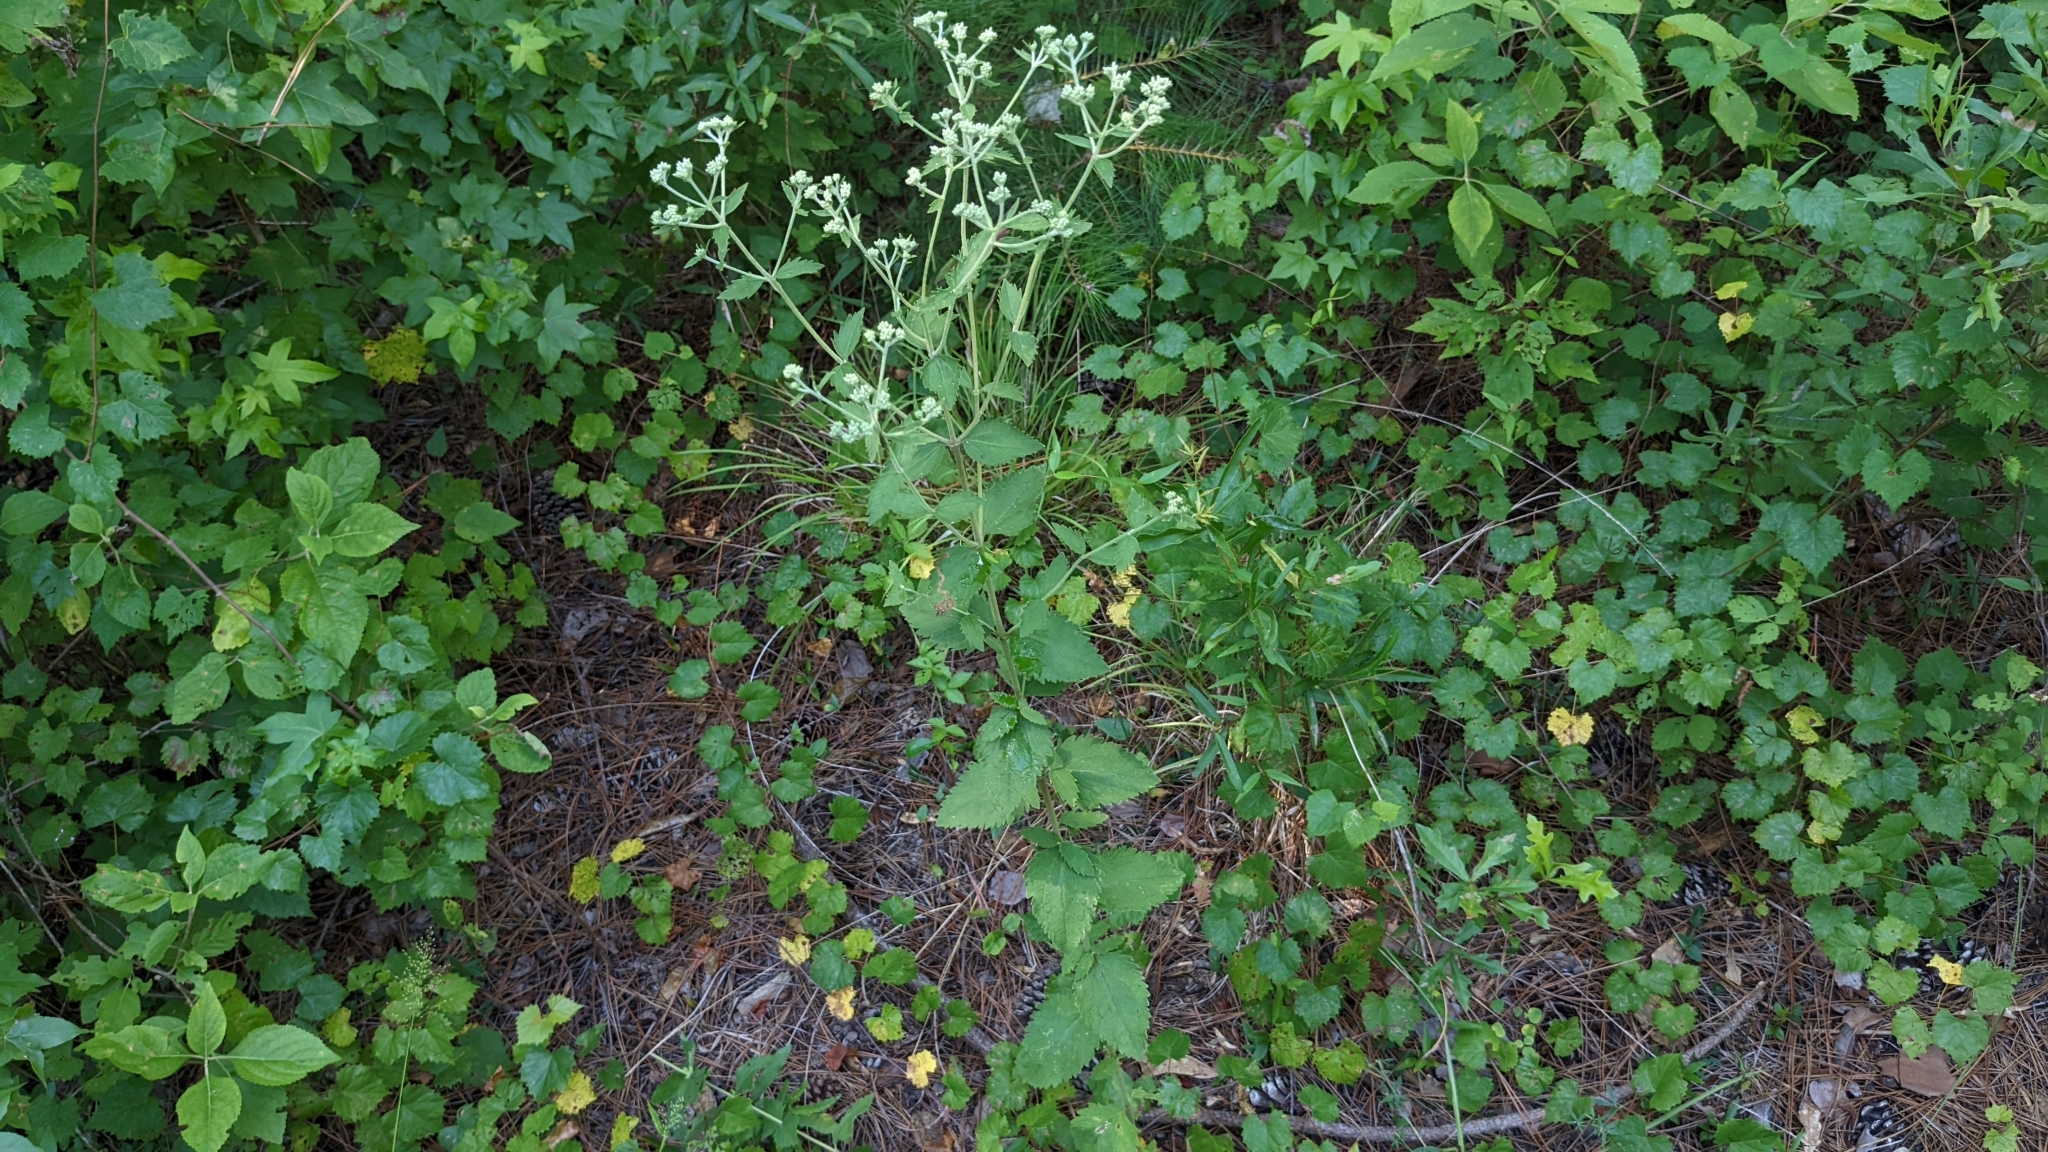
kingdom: Plantae
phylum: Tracheophyta
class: Magnoliopsida
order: Asterales
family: Asteraceae
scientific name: Asteraceae
